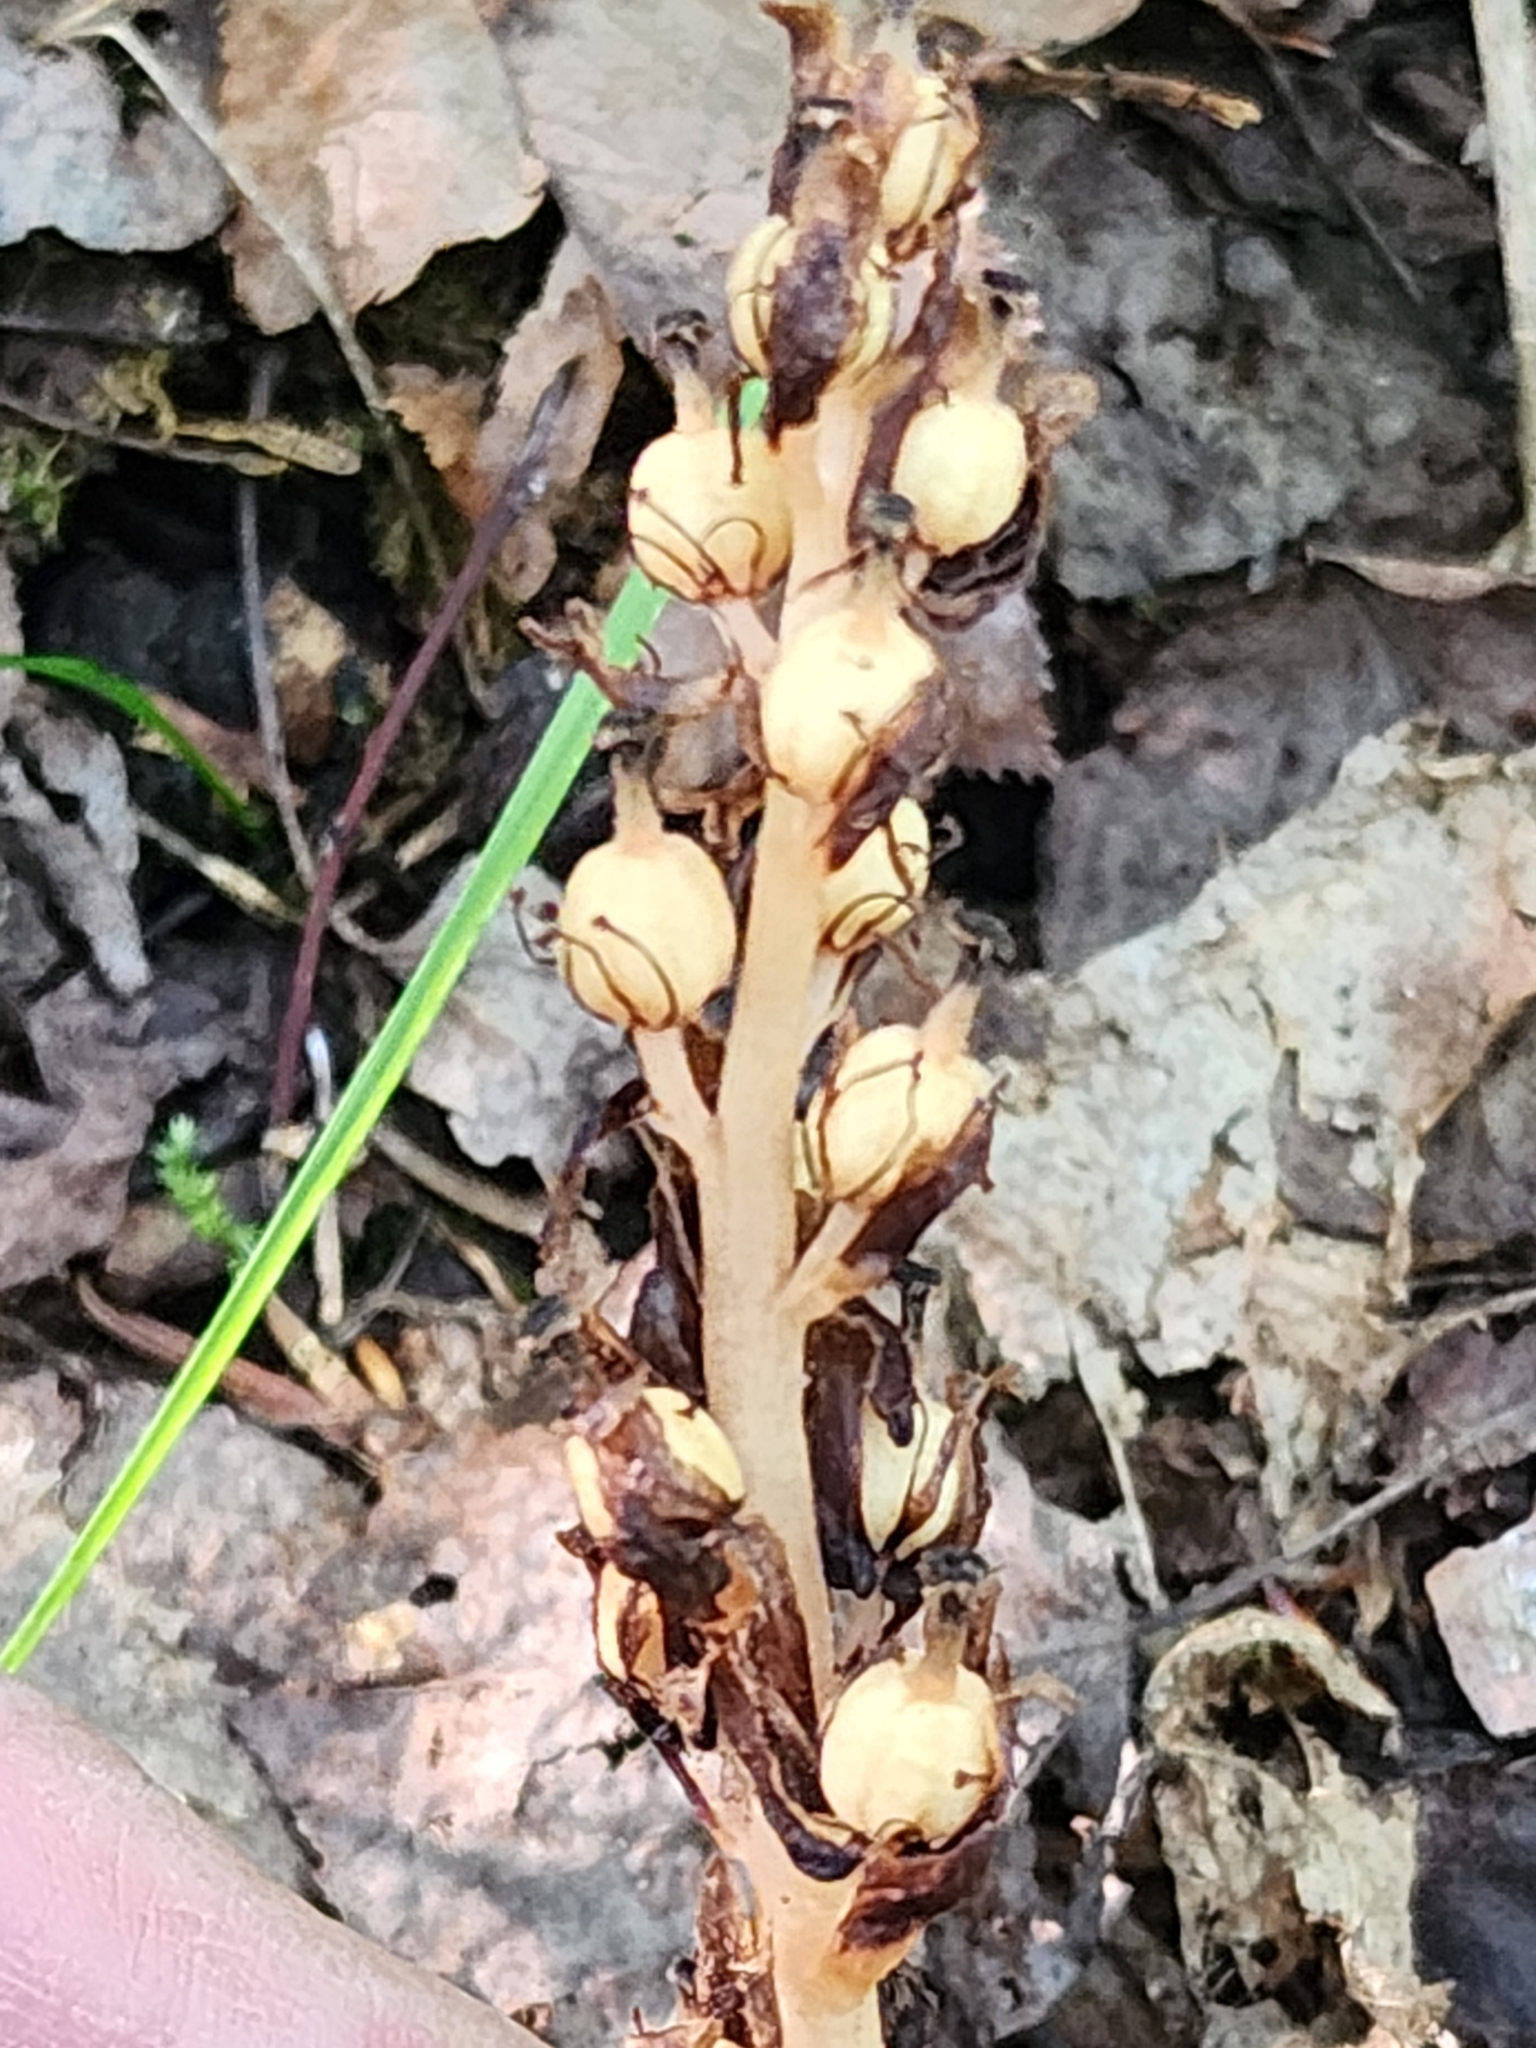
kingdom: Plantae
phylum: Tracheophyta
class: Magnoliopsida
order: Ericales
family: Ericaceae
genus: Hypopitys
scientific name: Hypopitys monotropa
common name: Yellow bird's-nest
